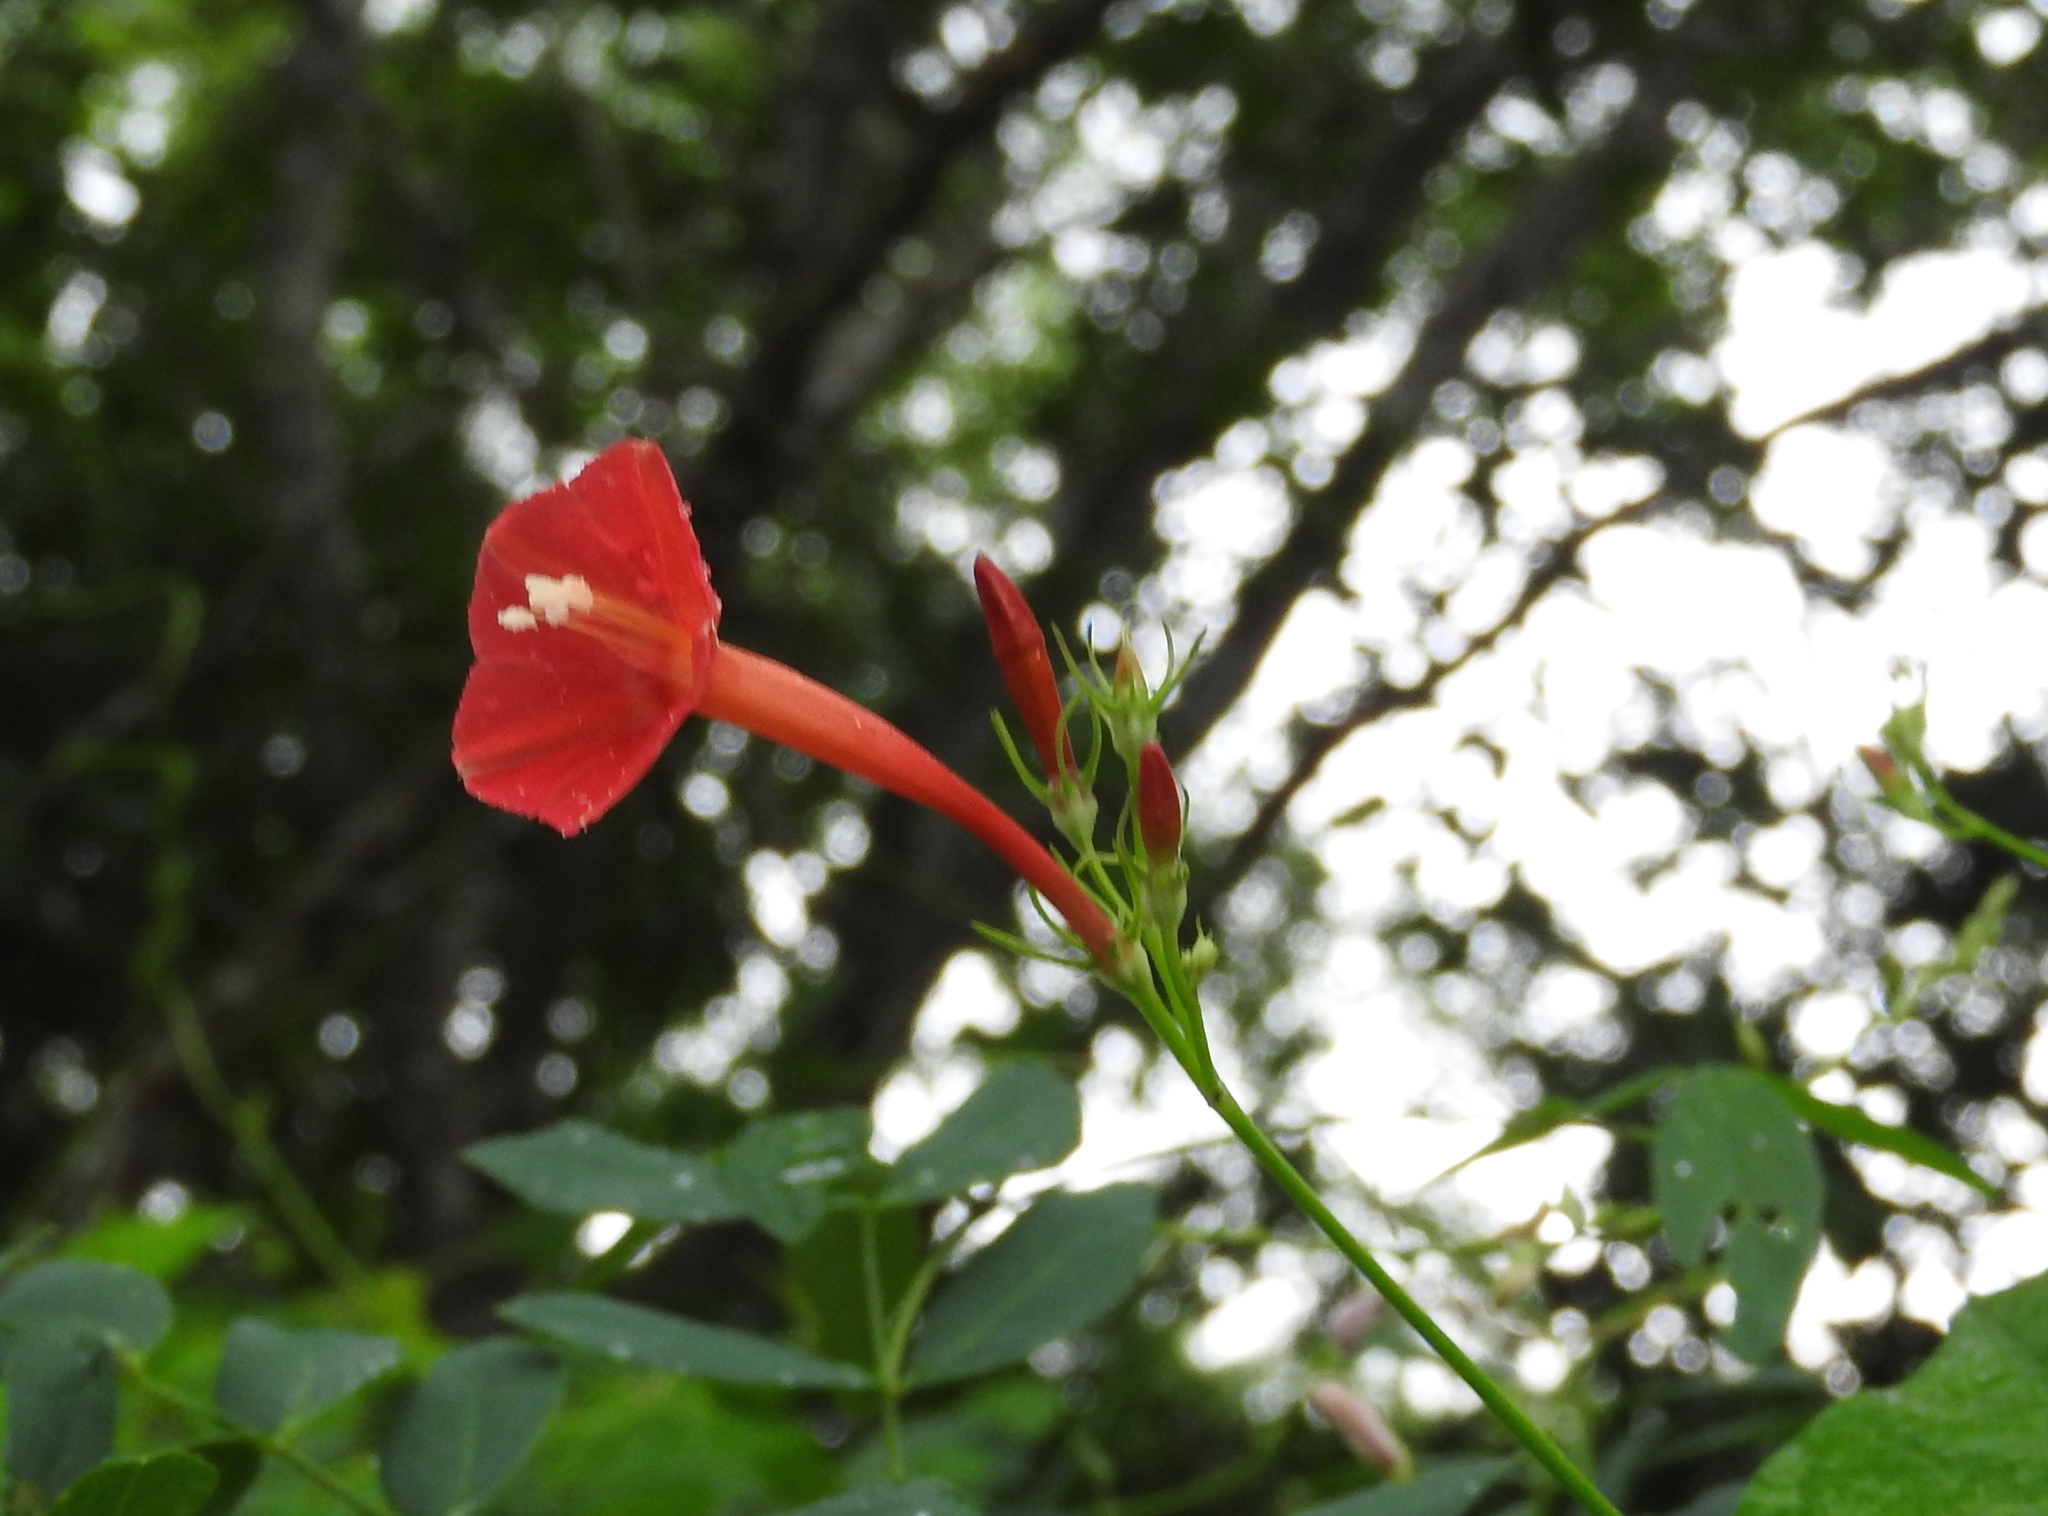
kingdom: Plantae
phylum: Tracheophyta
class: Magnoliopsida
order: Solanales
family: Convolvulaceae
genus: Ipomoea
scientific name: Ipomoea hederifolia
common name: Ivy-leaf morning-glory
